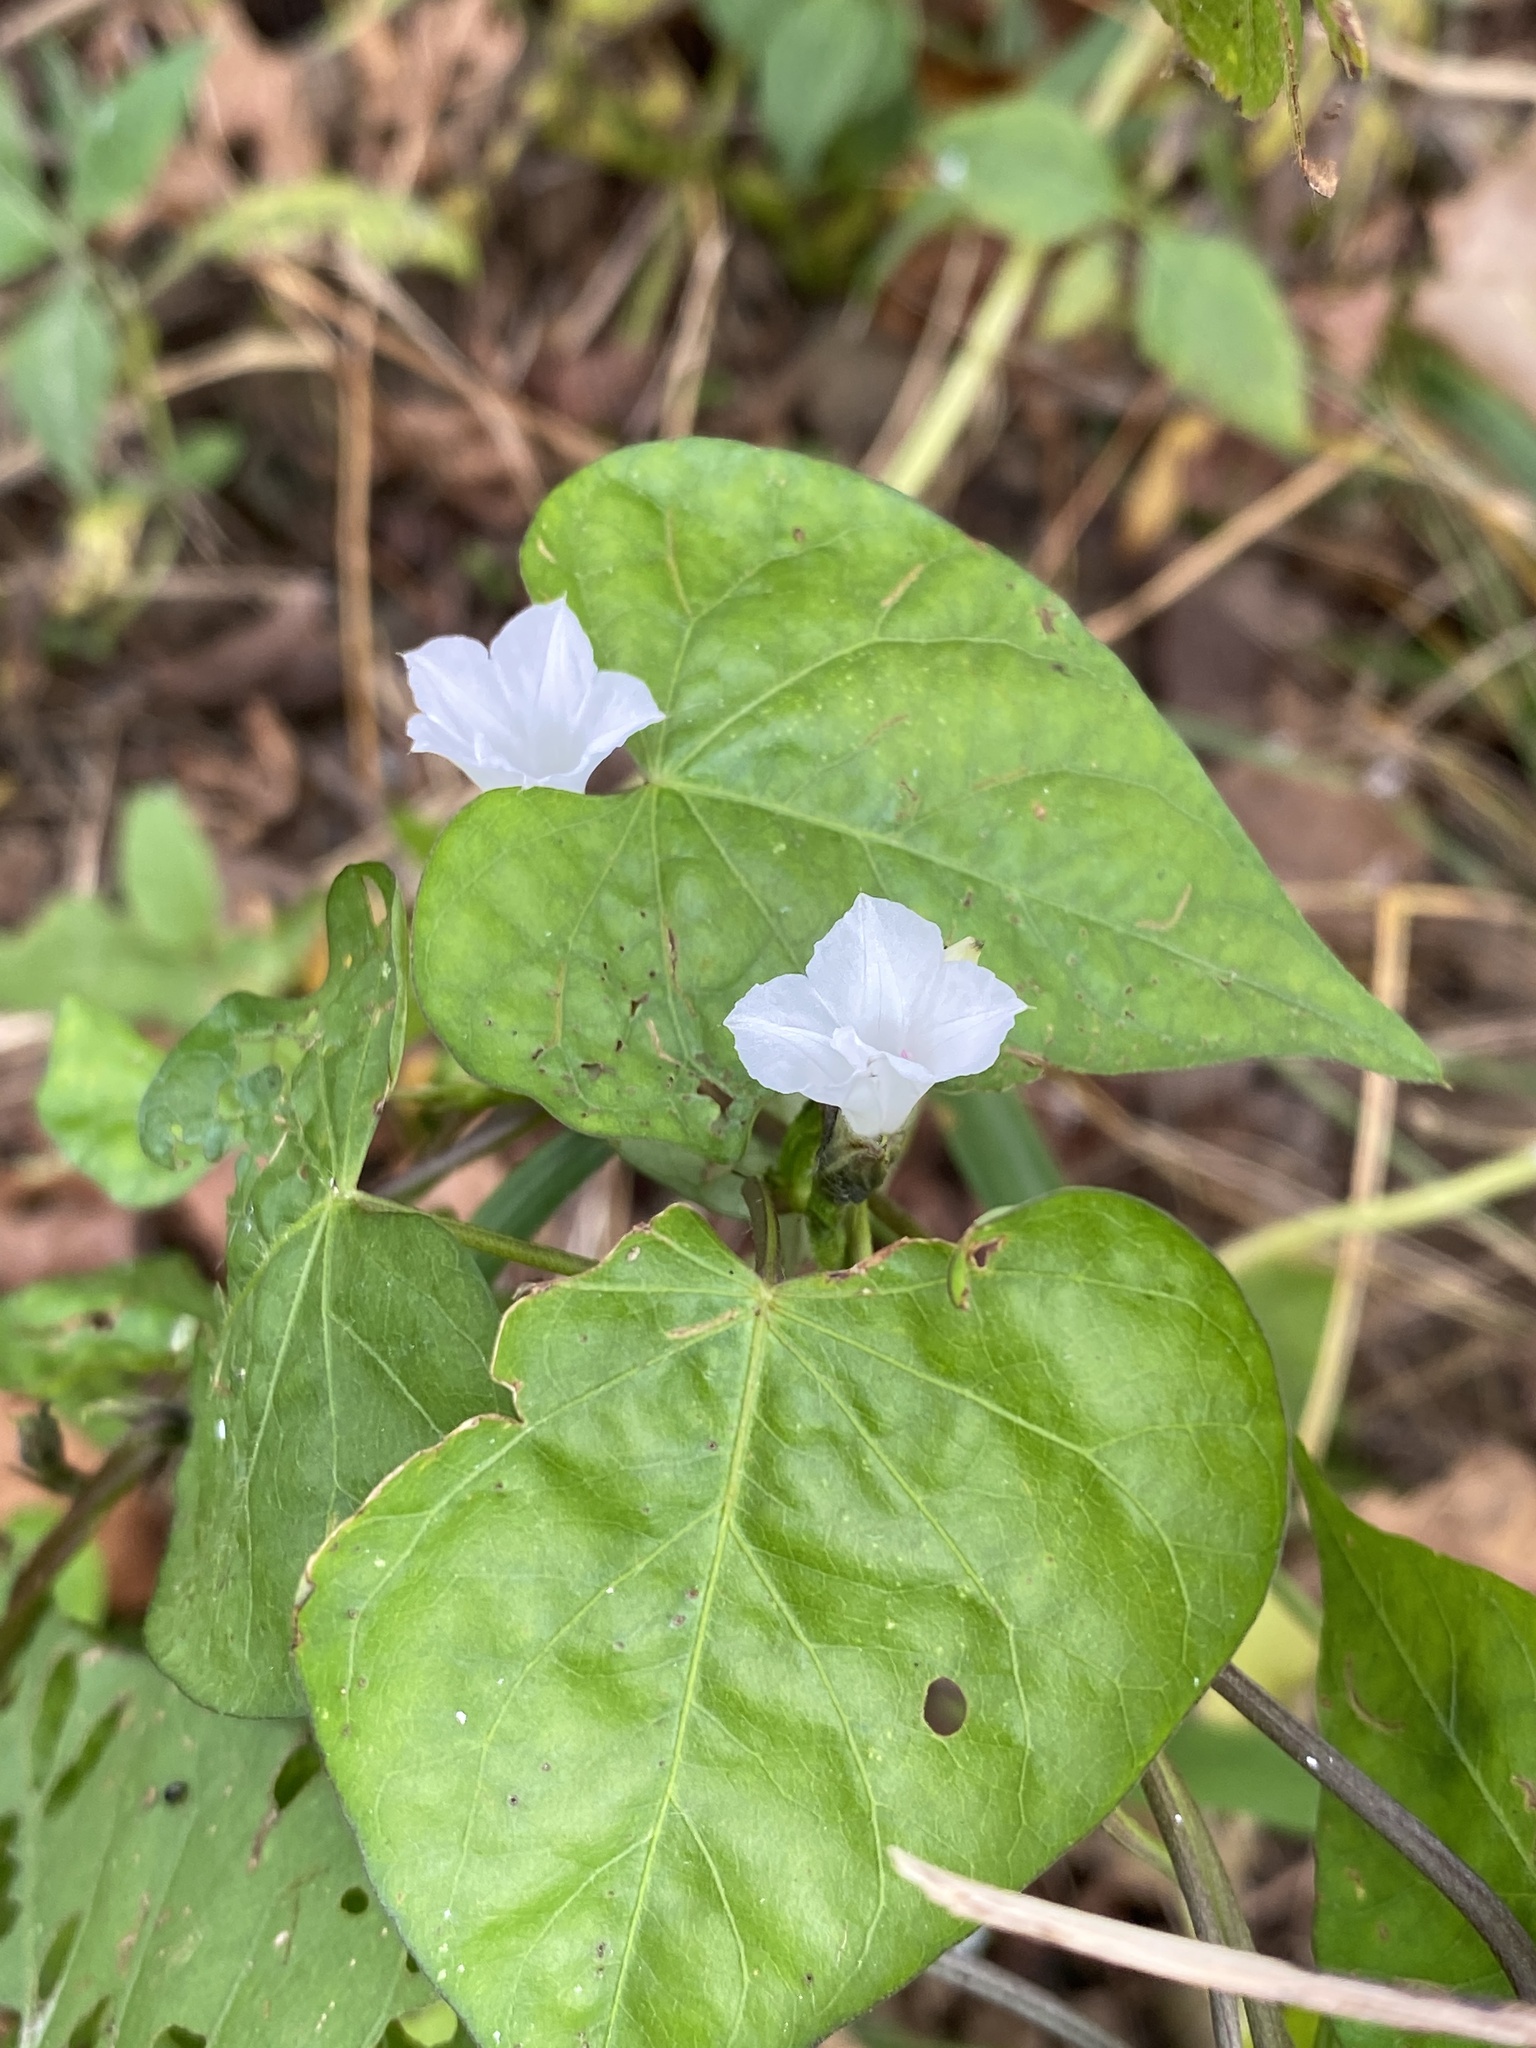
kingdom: Plantae
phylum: Tracheophyta
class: Magnoliopsida
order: Solanales
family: Convolvulaceae
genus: Ipomoea
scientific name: Ipomoea lacunosa
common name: White morning-glory
